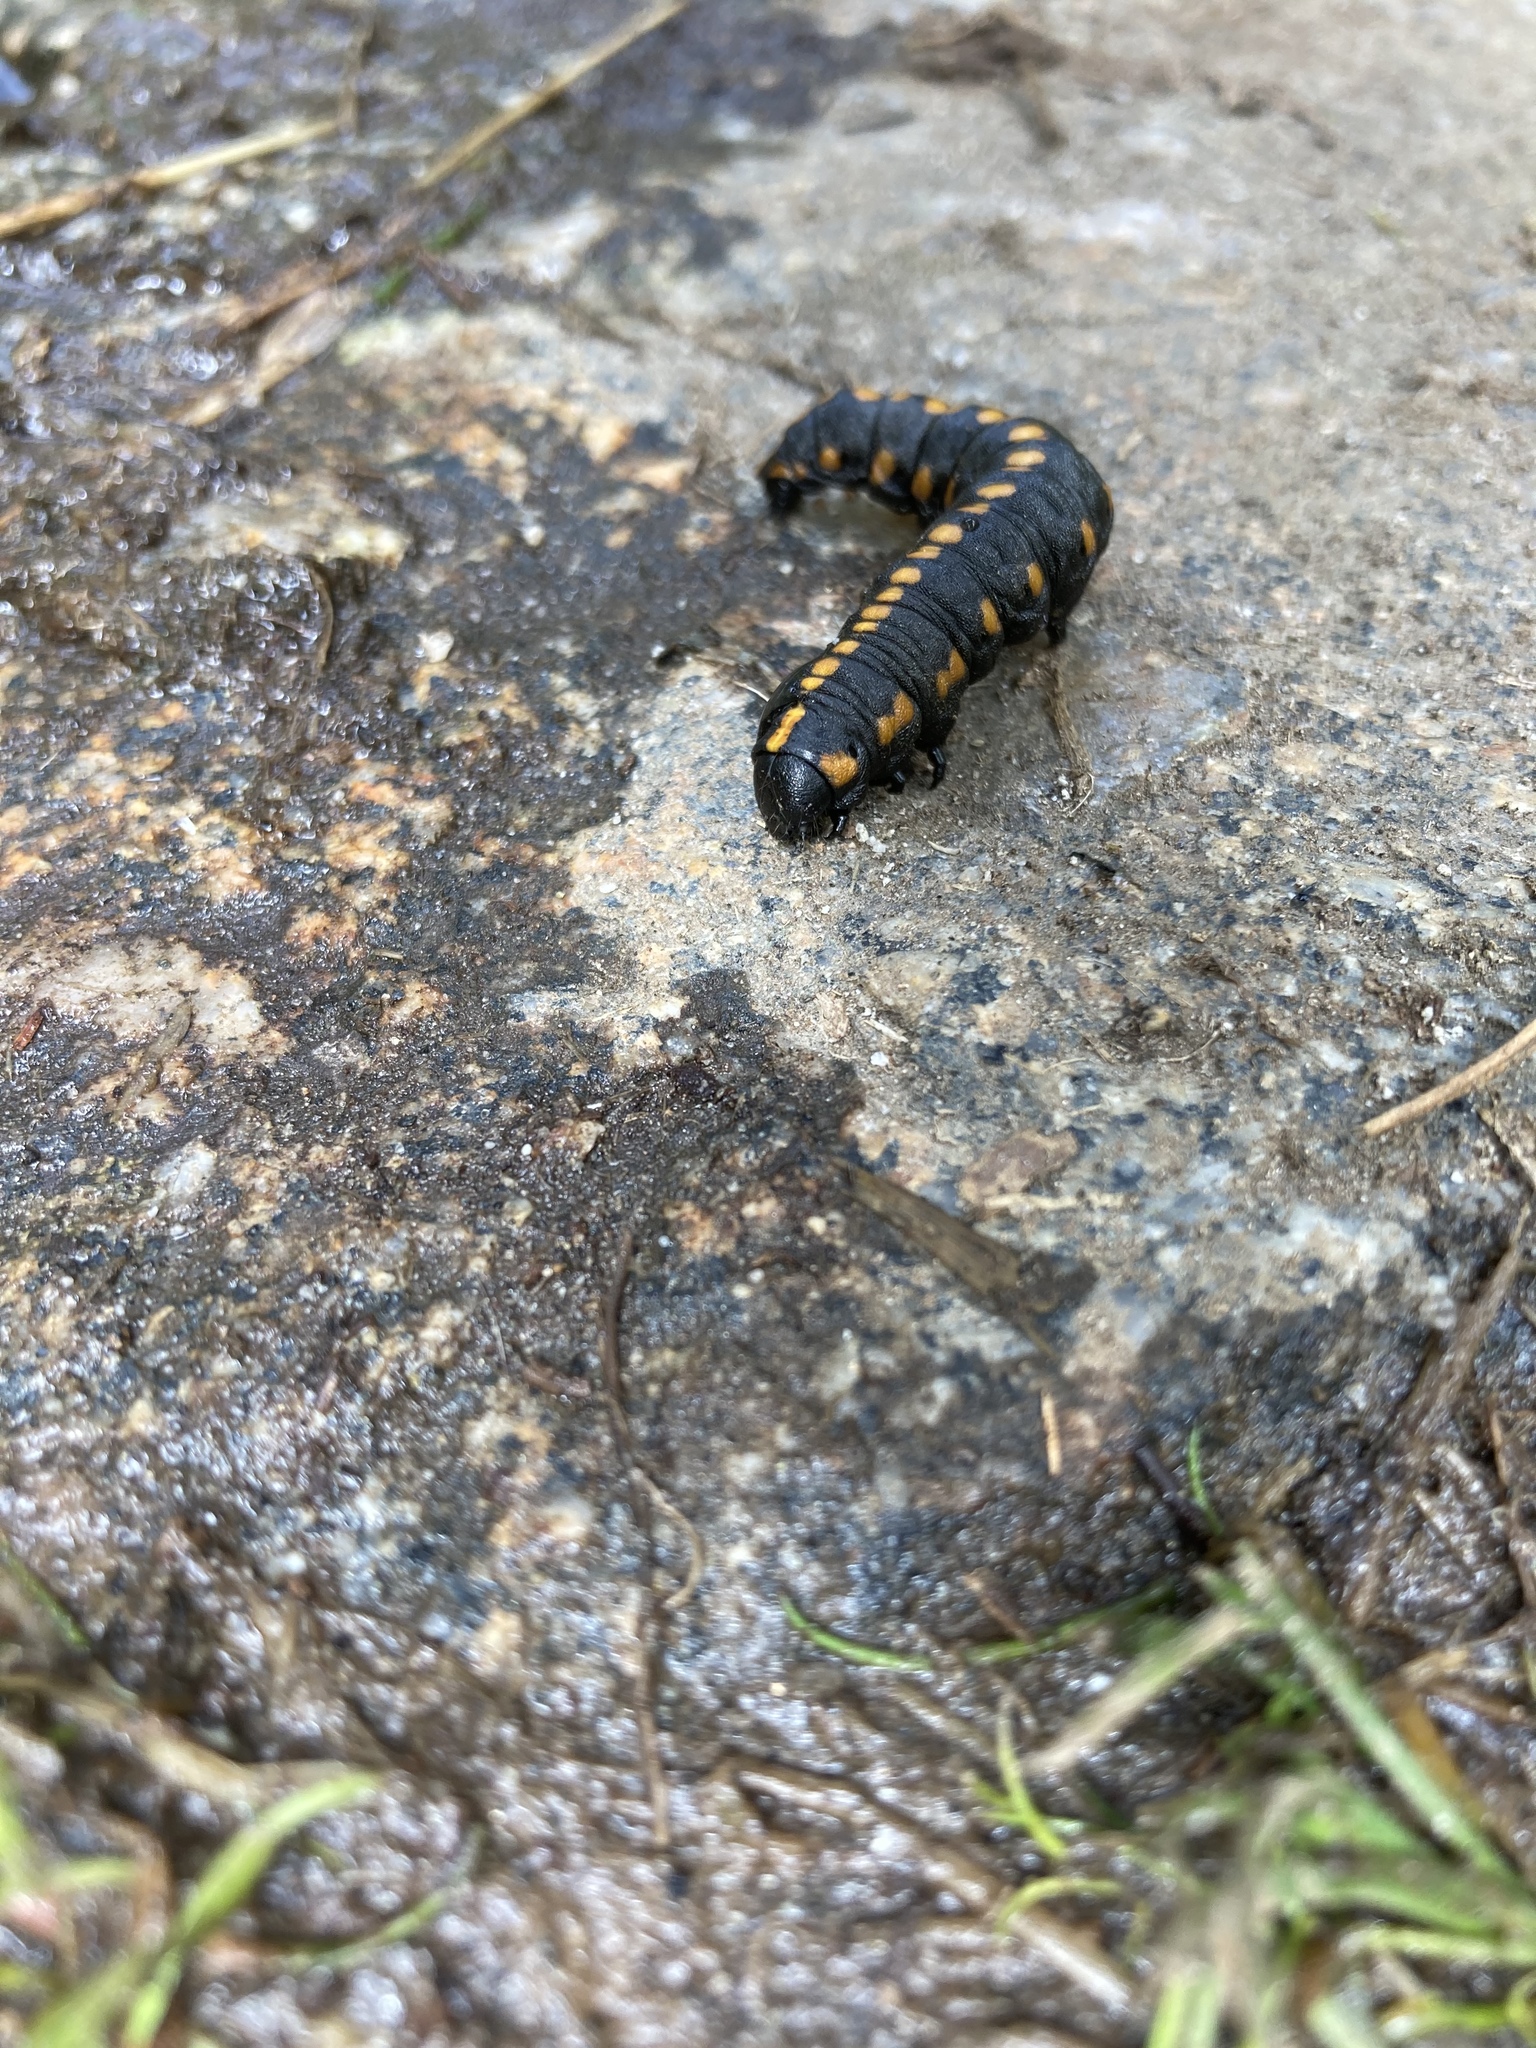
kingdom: Animalia
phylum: Arthropoda
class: Insecta
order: Lepidoptera
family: Noctuidae
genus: Cucullia
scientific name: Cucullia lucifuga
